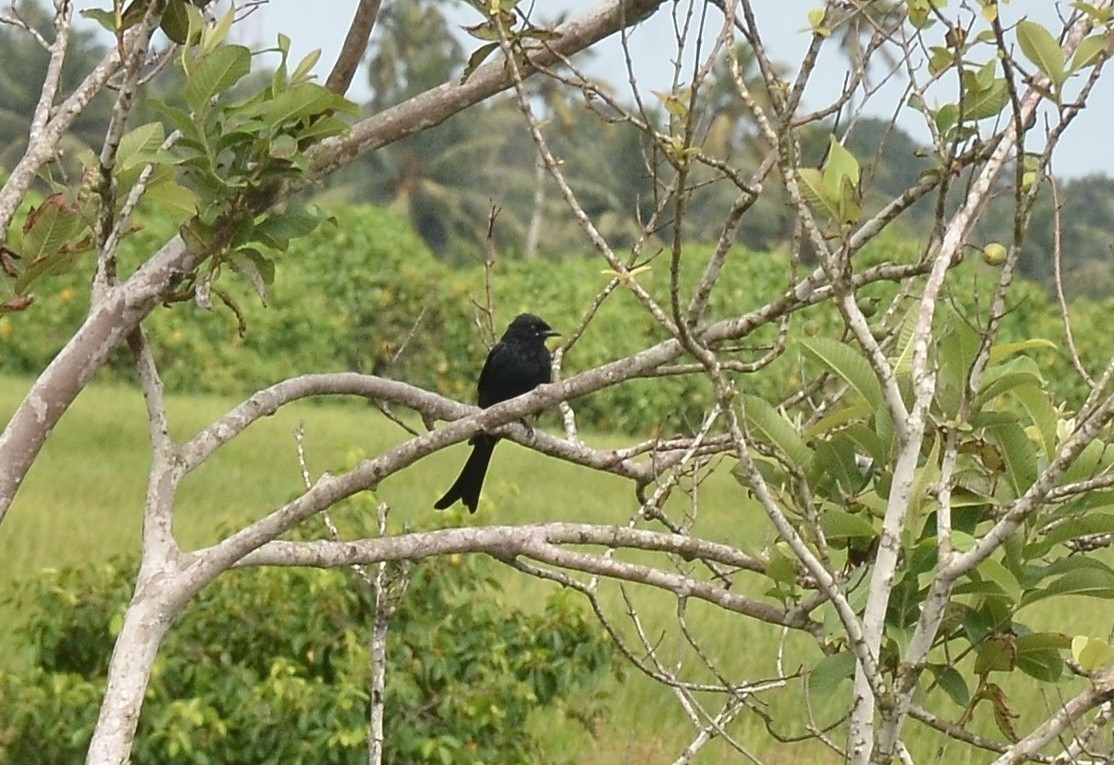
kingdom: Animalia
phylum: Chordata
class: Aves
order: Passeriformes
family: Dicruridae
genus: Dicrurus
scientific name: Dicrurus macrocercus
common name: Black drongo
